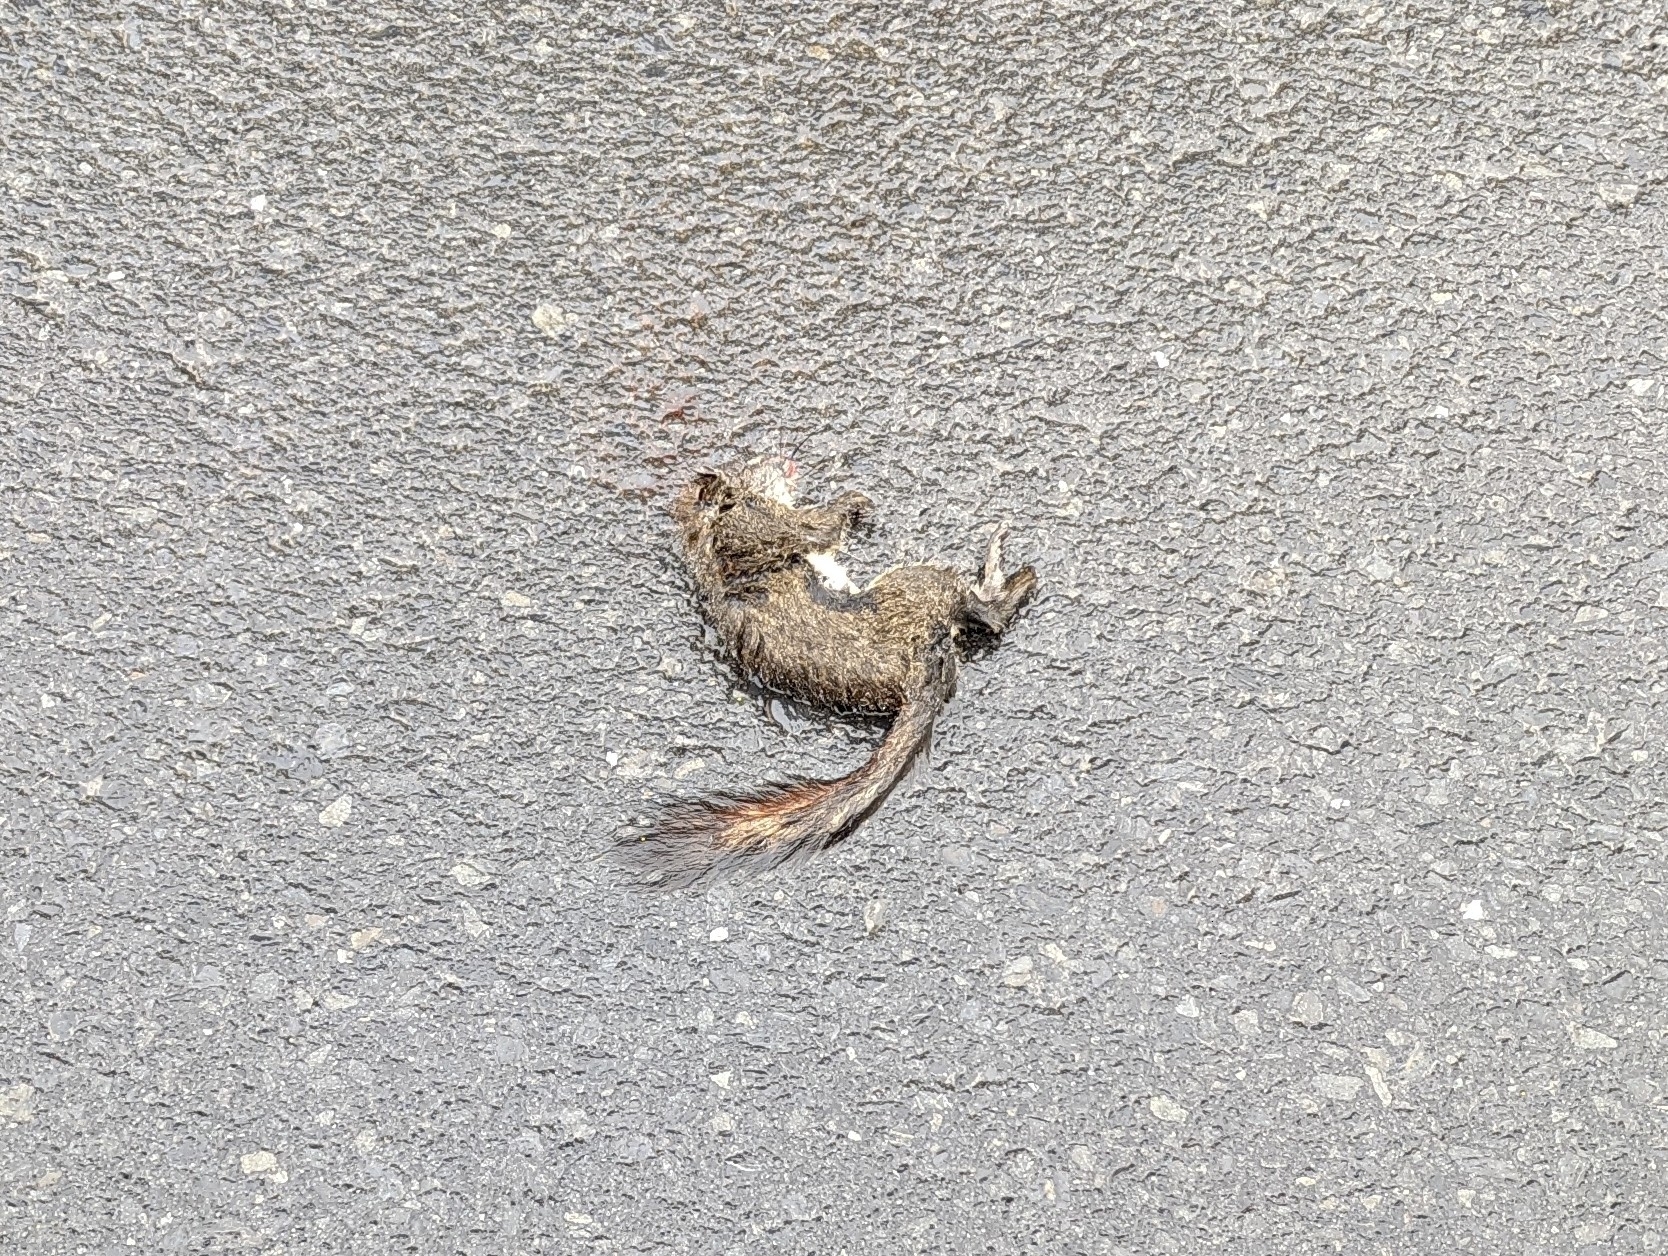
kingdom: Animalia
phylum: Chordata
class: Mammalia
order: Rodentia
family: Sciuridae
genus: Tamiasciurus
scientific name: Tamiasciurus hudsonicus
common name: Red squirrel
